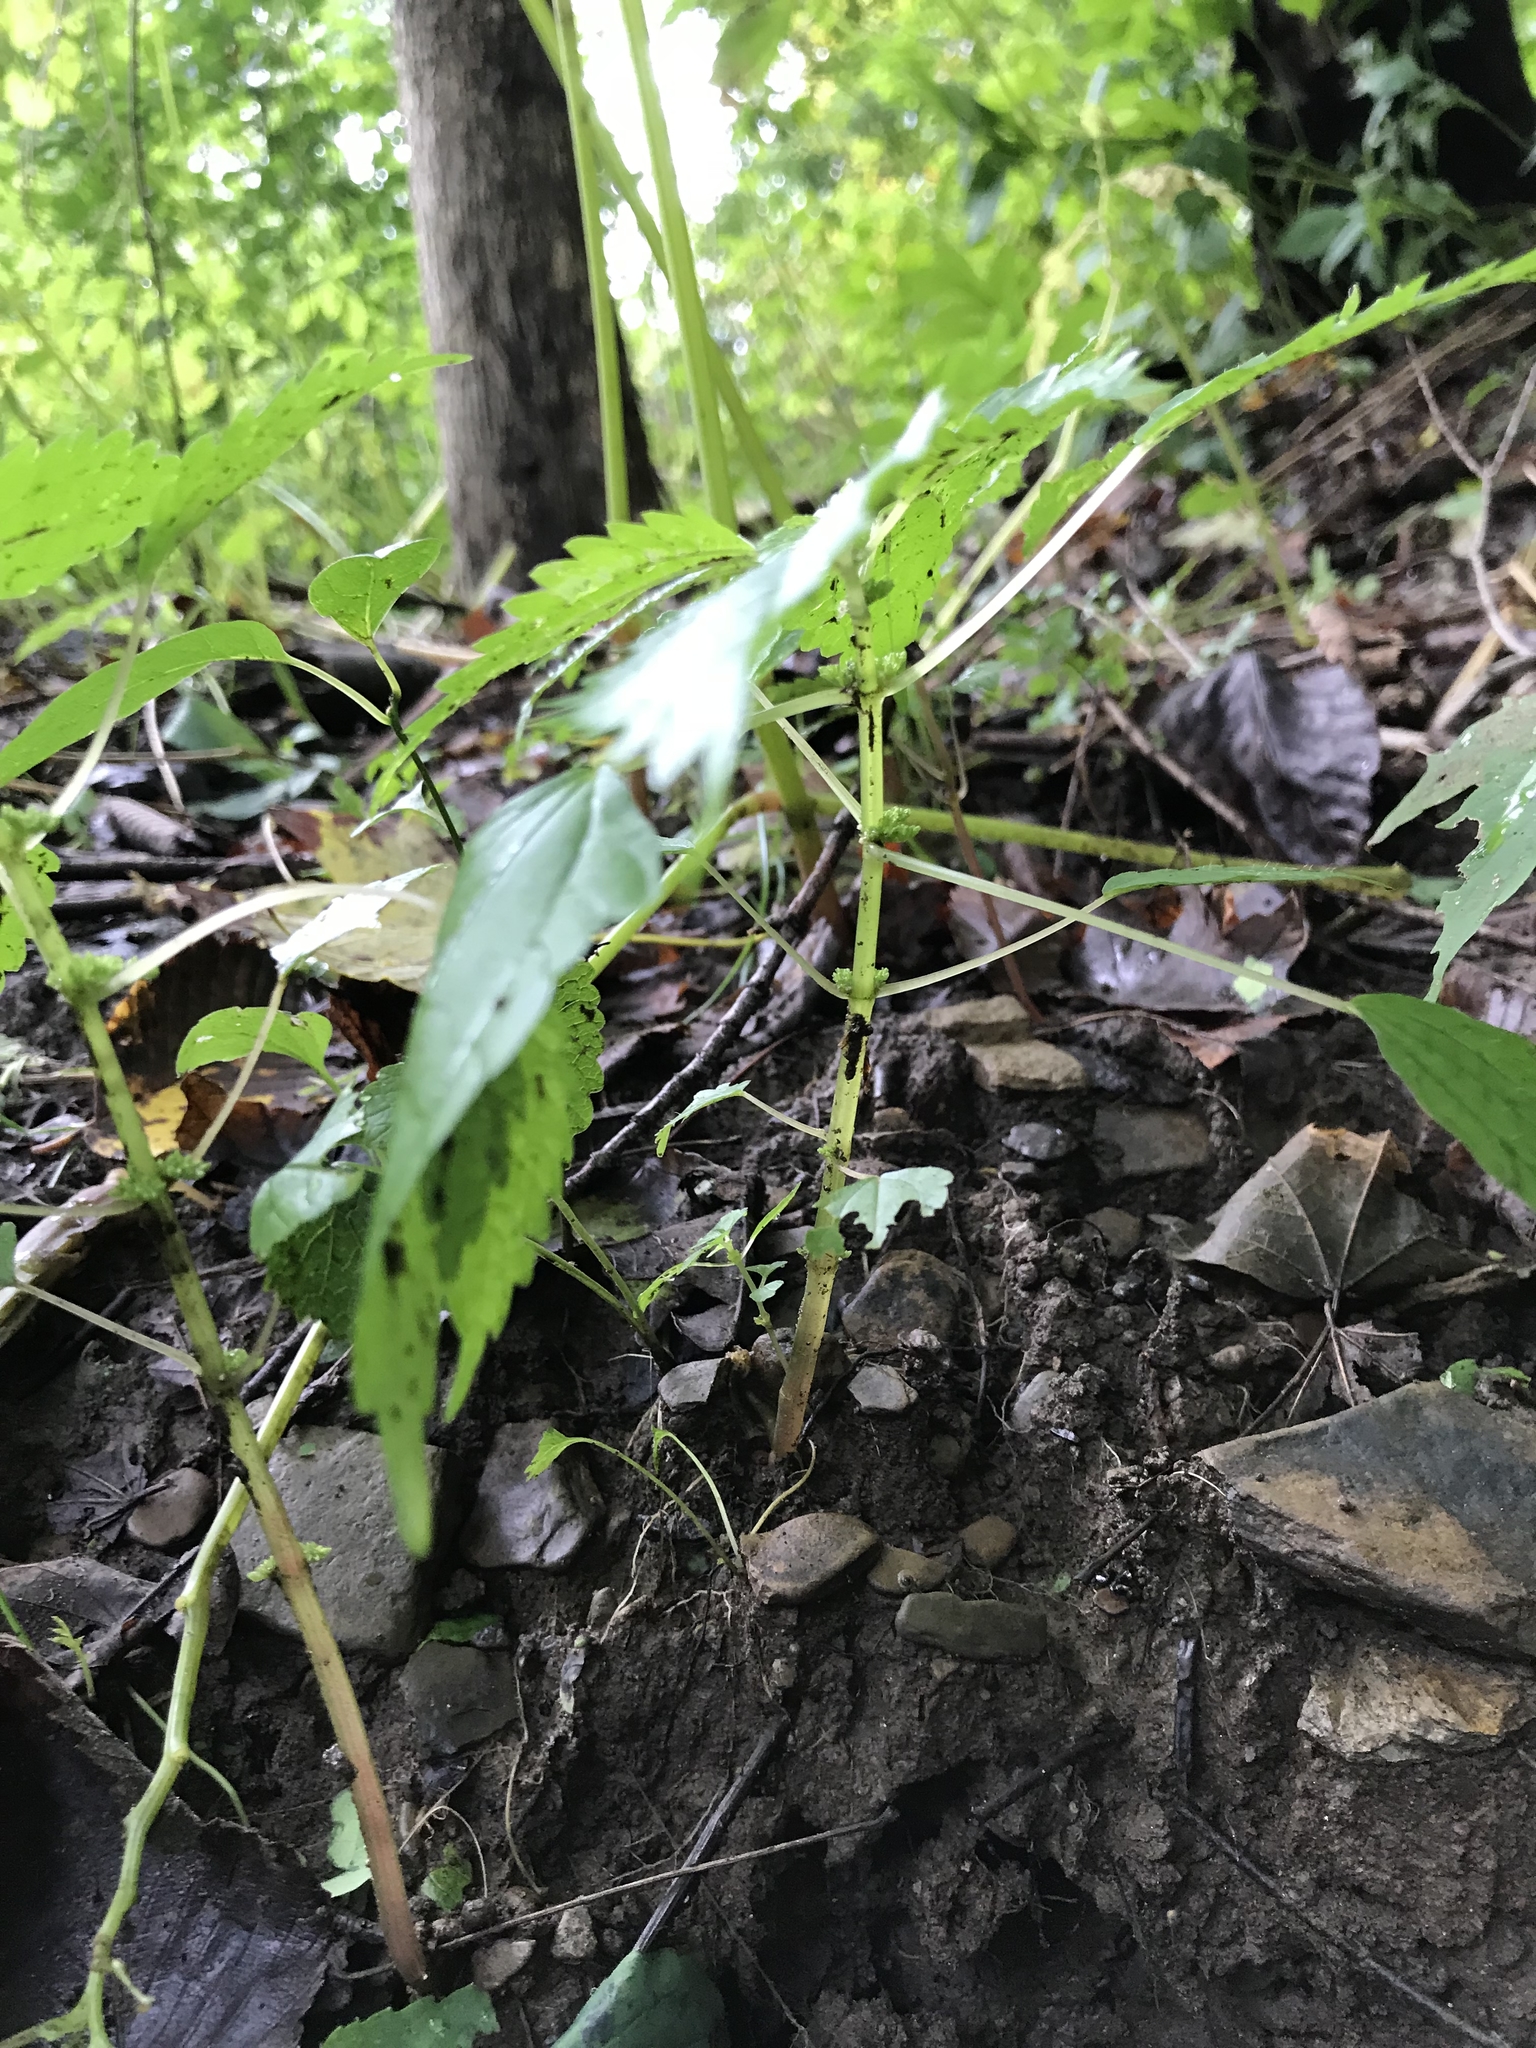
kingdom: Plantae
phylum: Tracheophyta
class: Magnoliopsida
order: Rosales
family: Urticaceae
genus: Pilea
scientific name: Pilea pumila
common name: Clearweed
